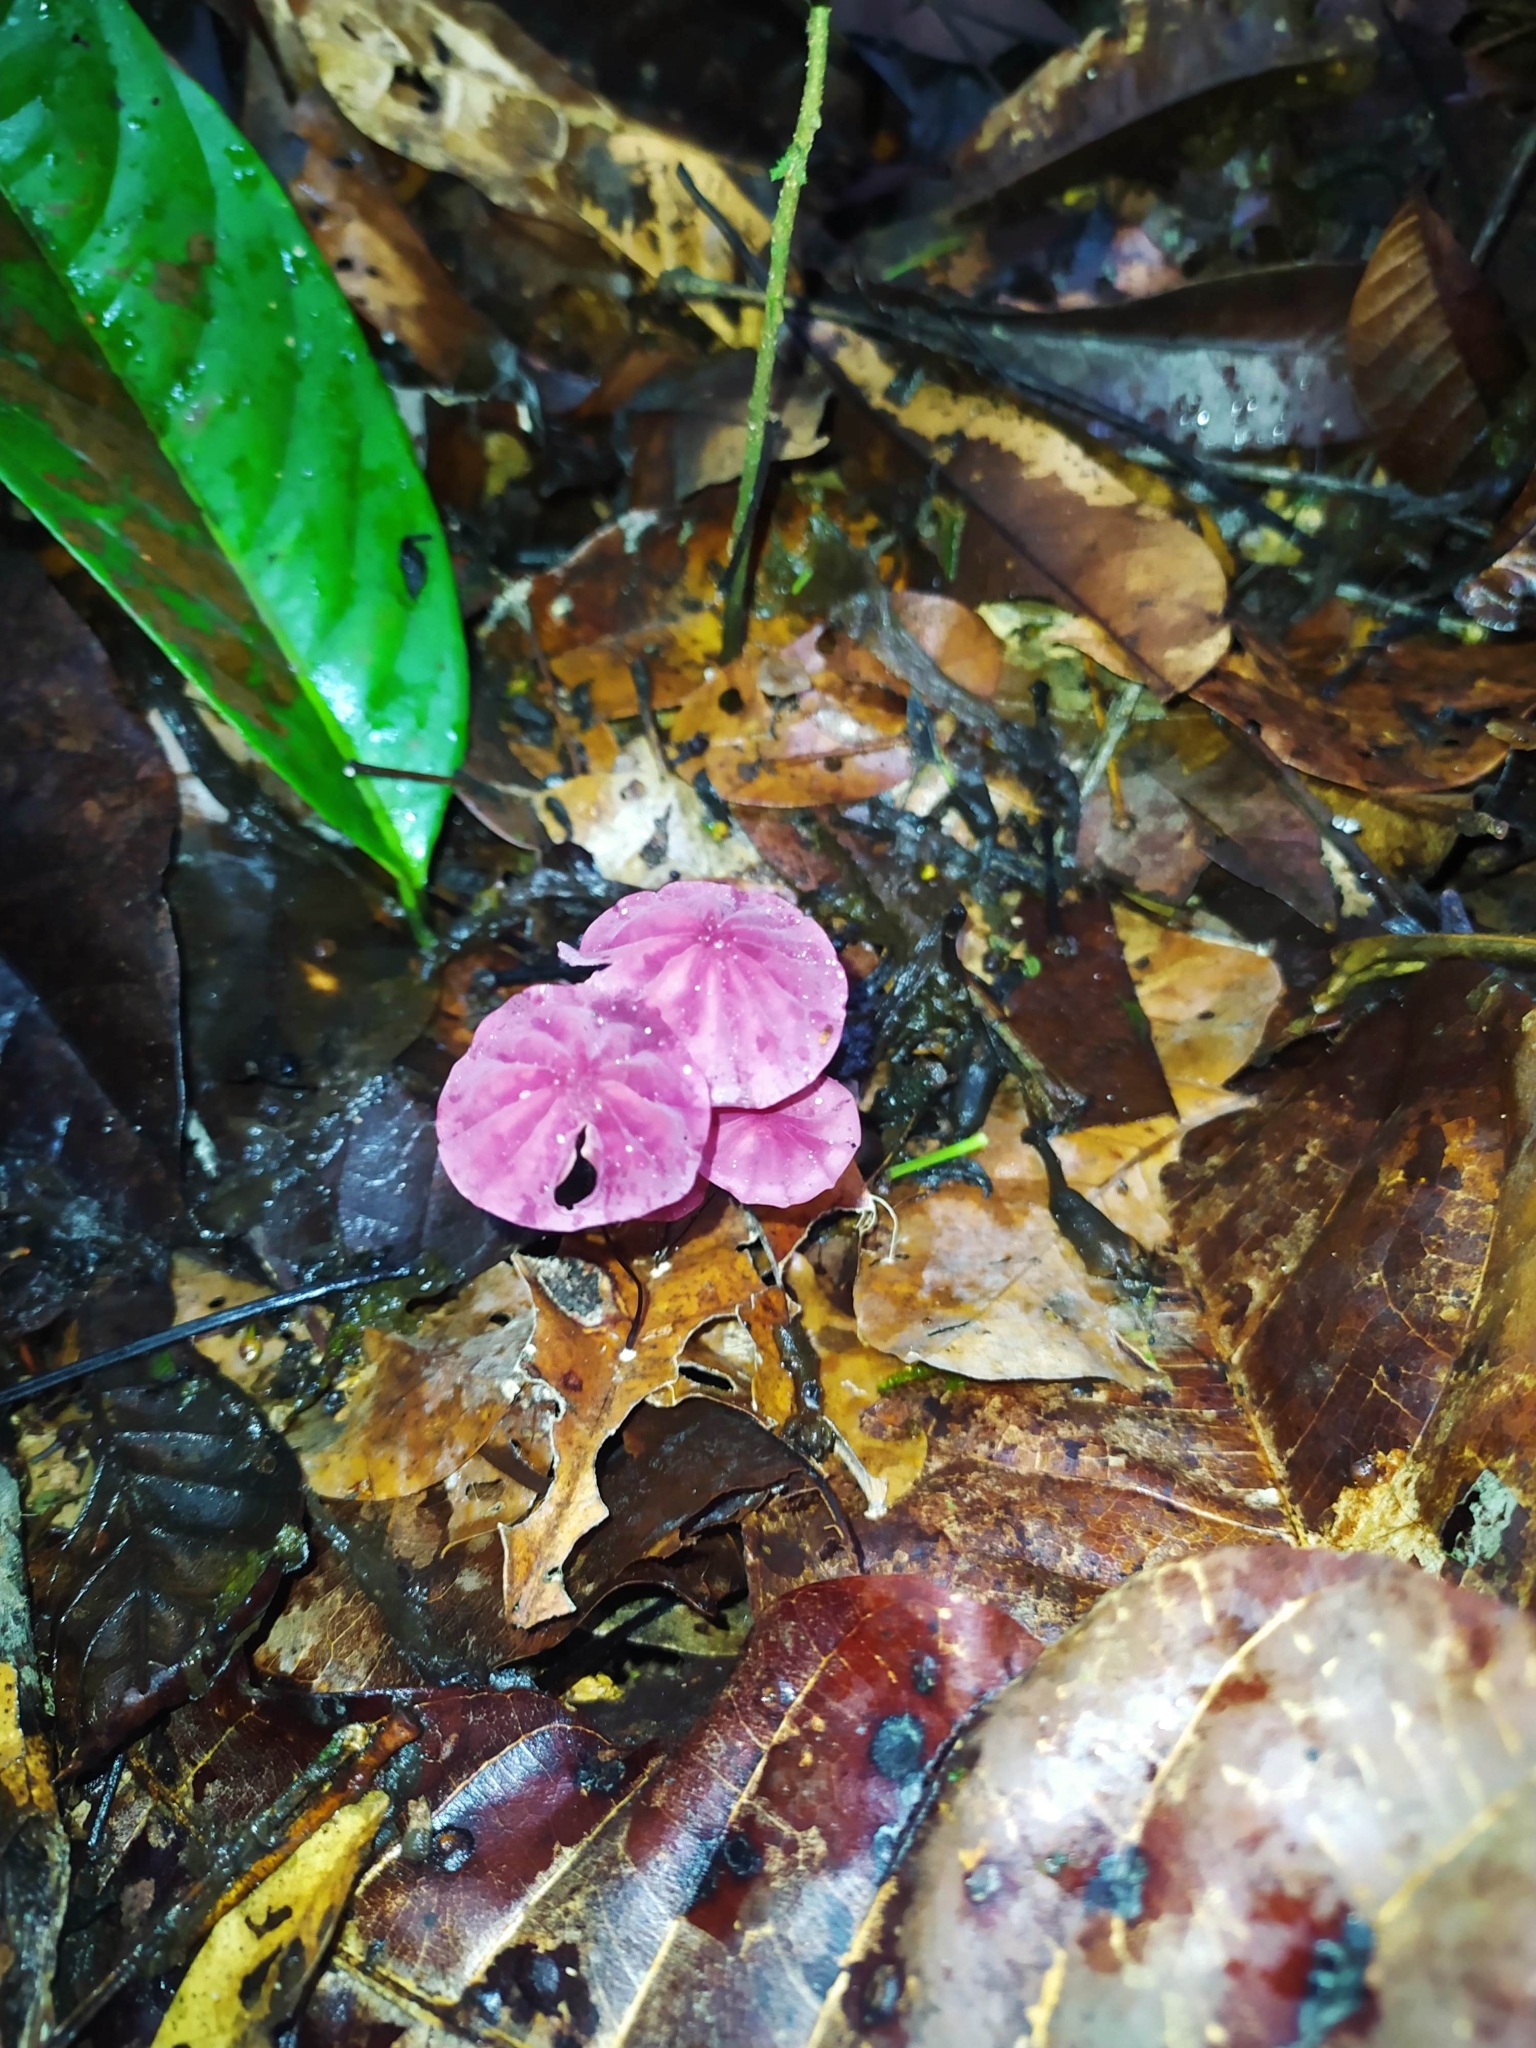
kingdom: Fungi
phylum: Basidiomycota
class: Agaricomycetes
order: Agaricales
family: Marasmiaceae
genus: Marasmius
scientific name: Marasmius haematocephalus
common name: Purple pinwheel
